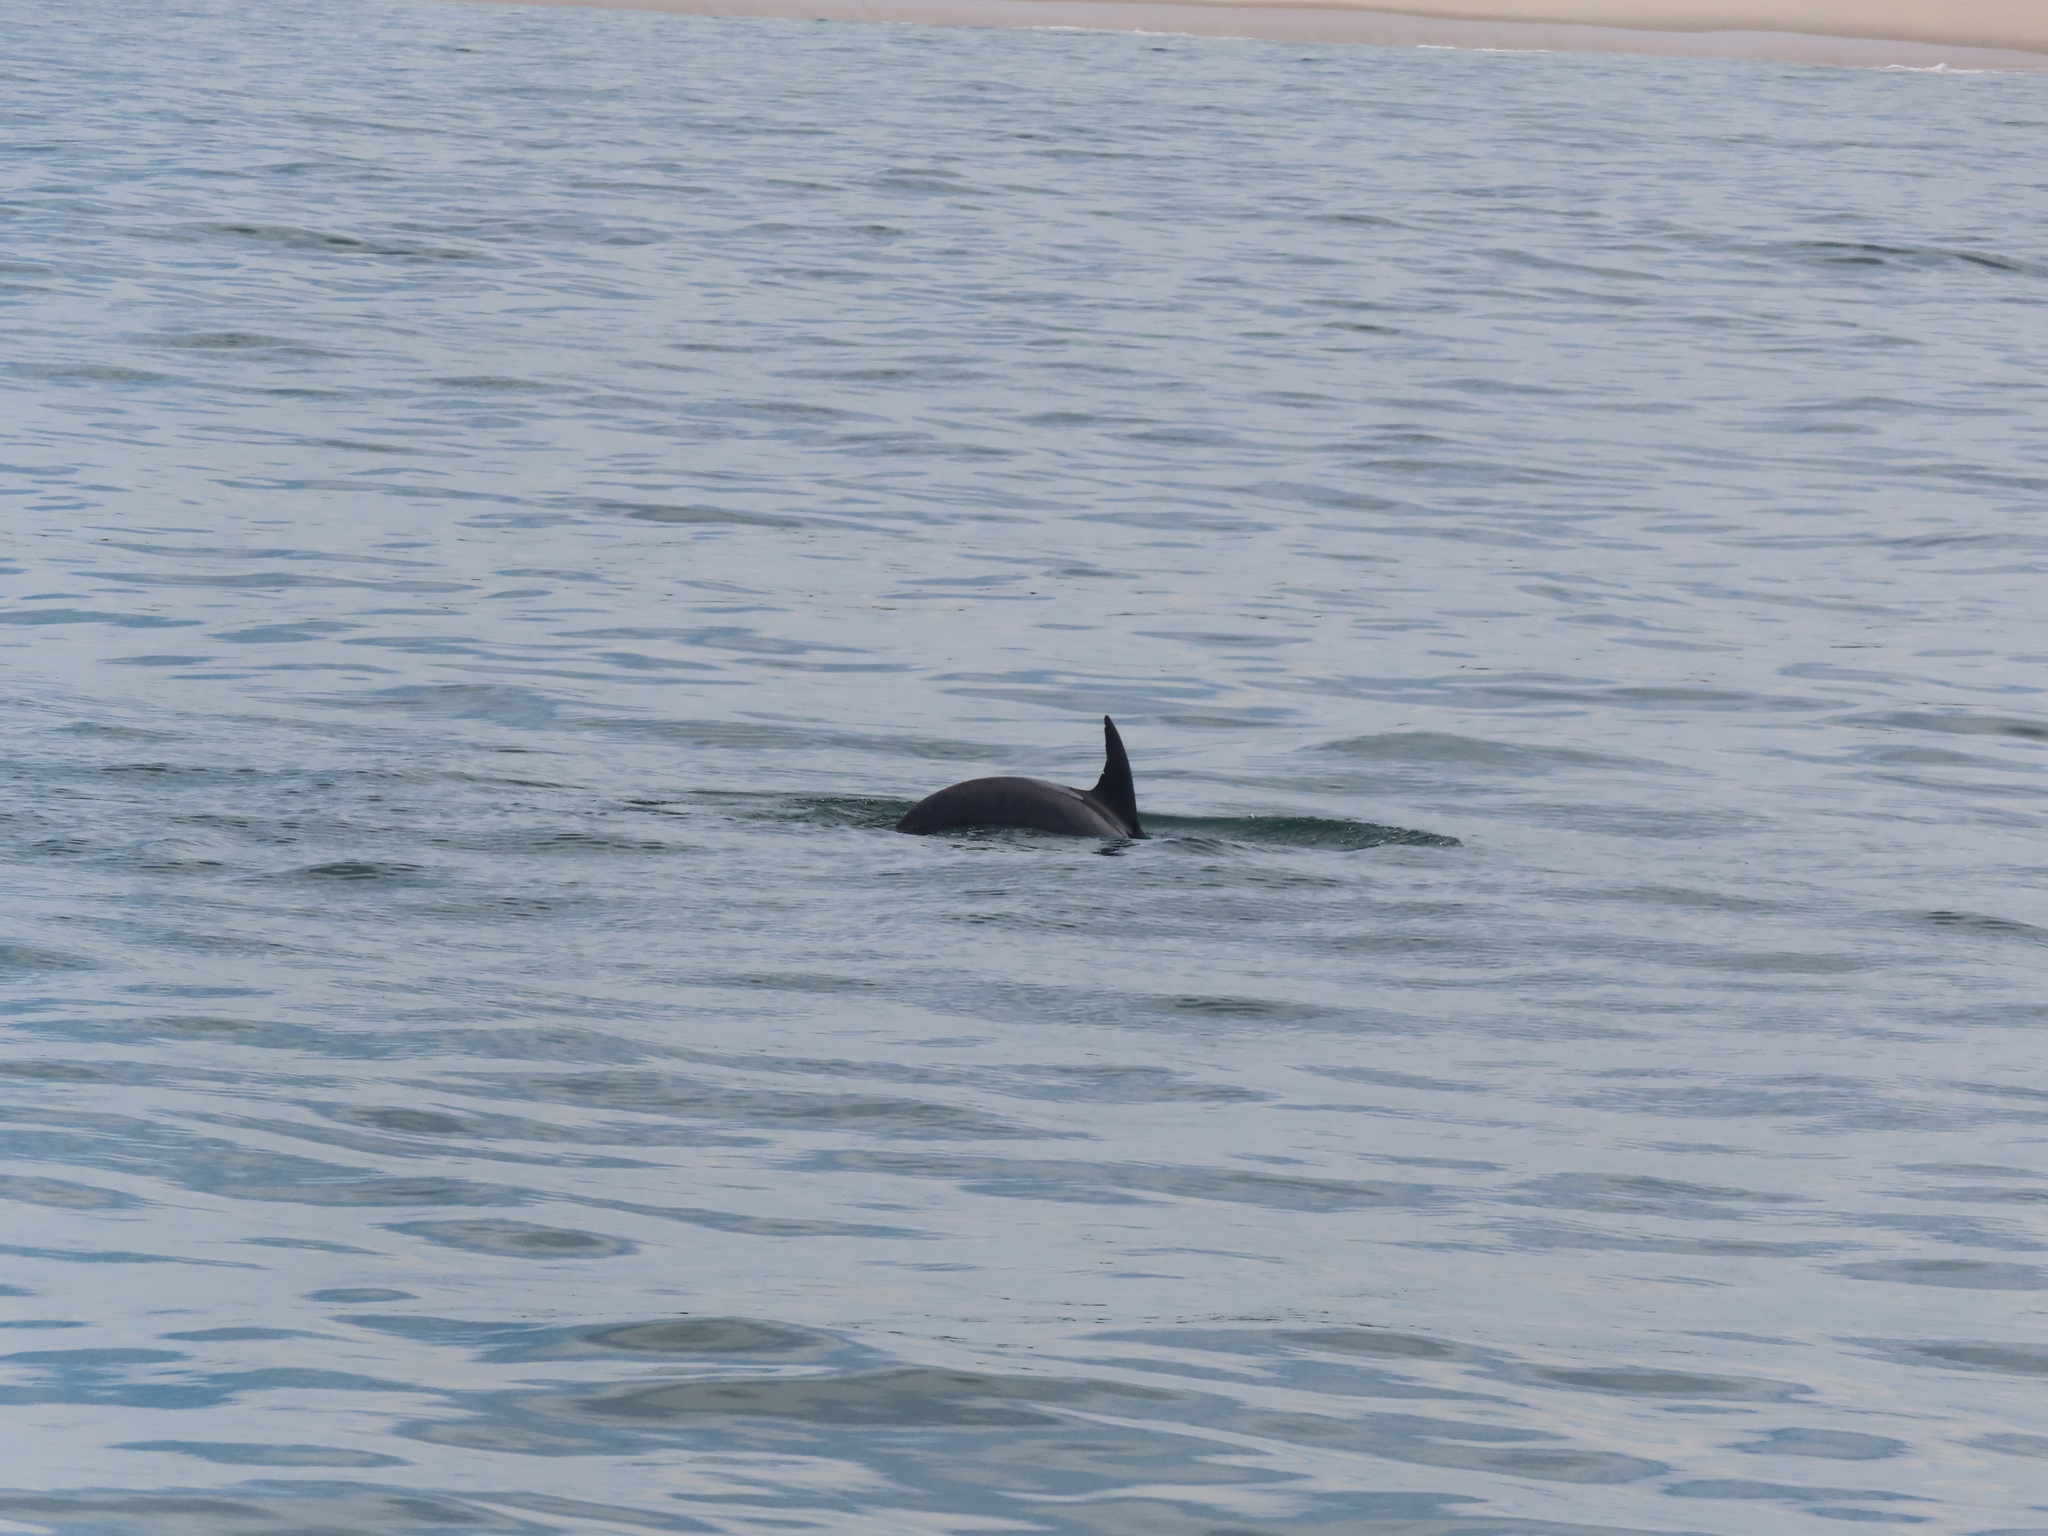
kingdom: Animalia
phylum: Chordata
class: Mammalia
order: Cetacea
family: Delphinidae
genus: Tursiops
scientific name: Tursiops truncatus
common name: Bottlenose dolphin
